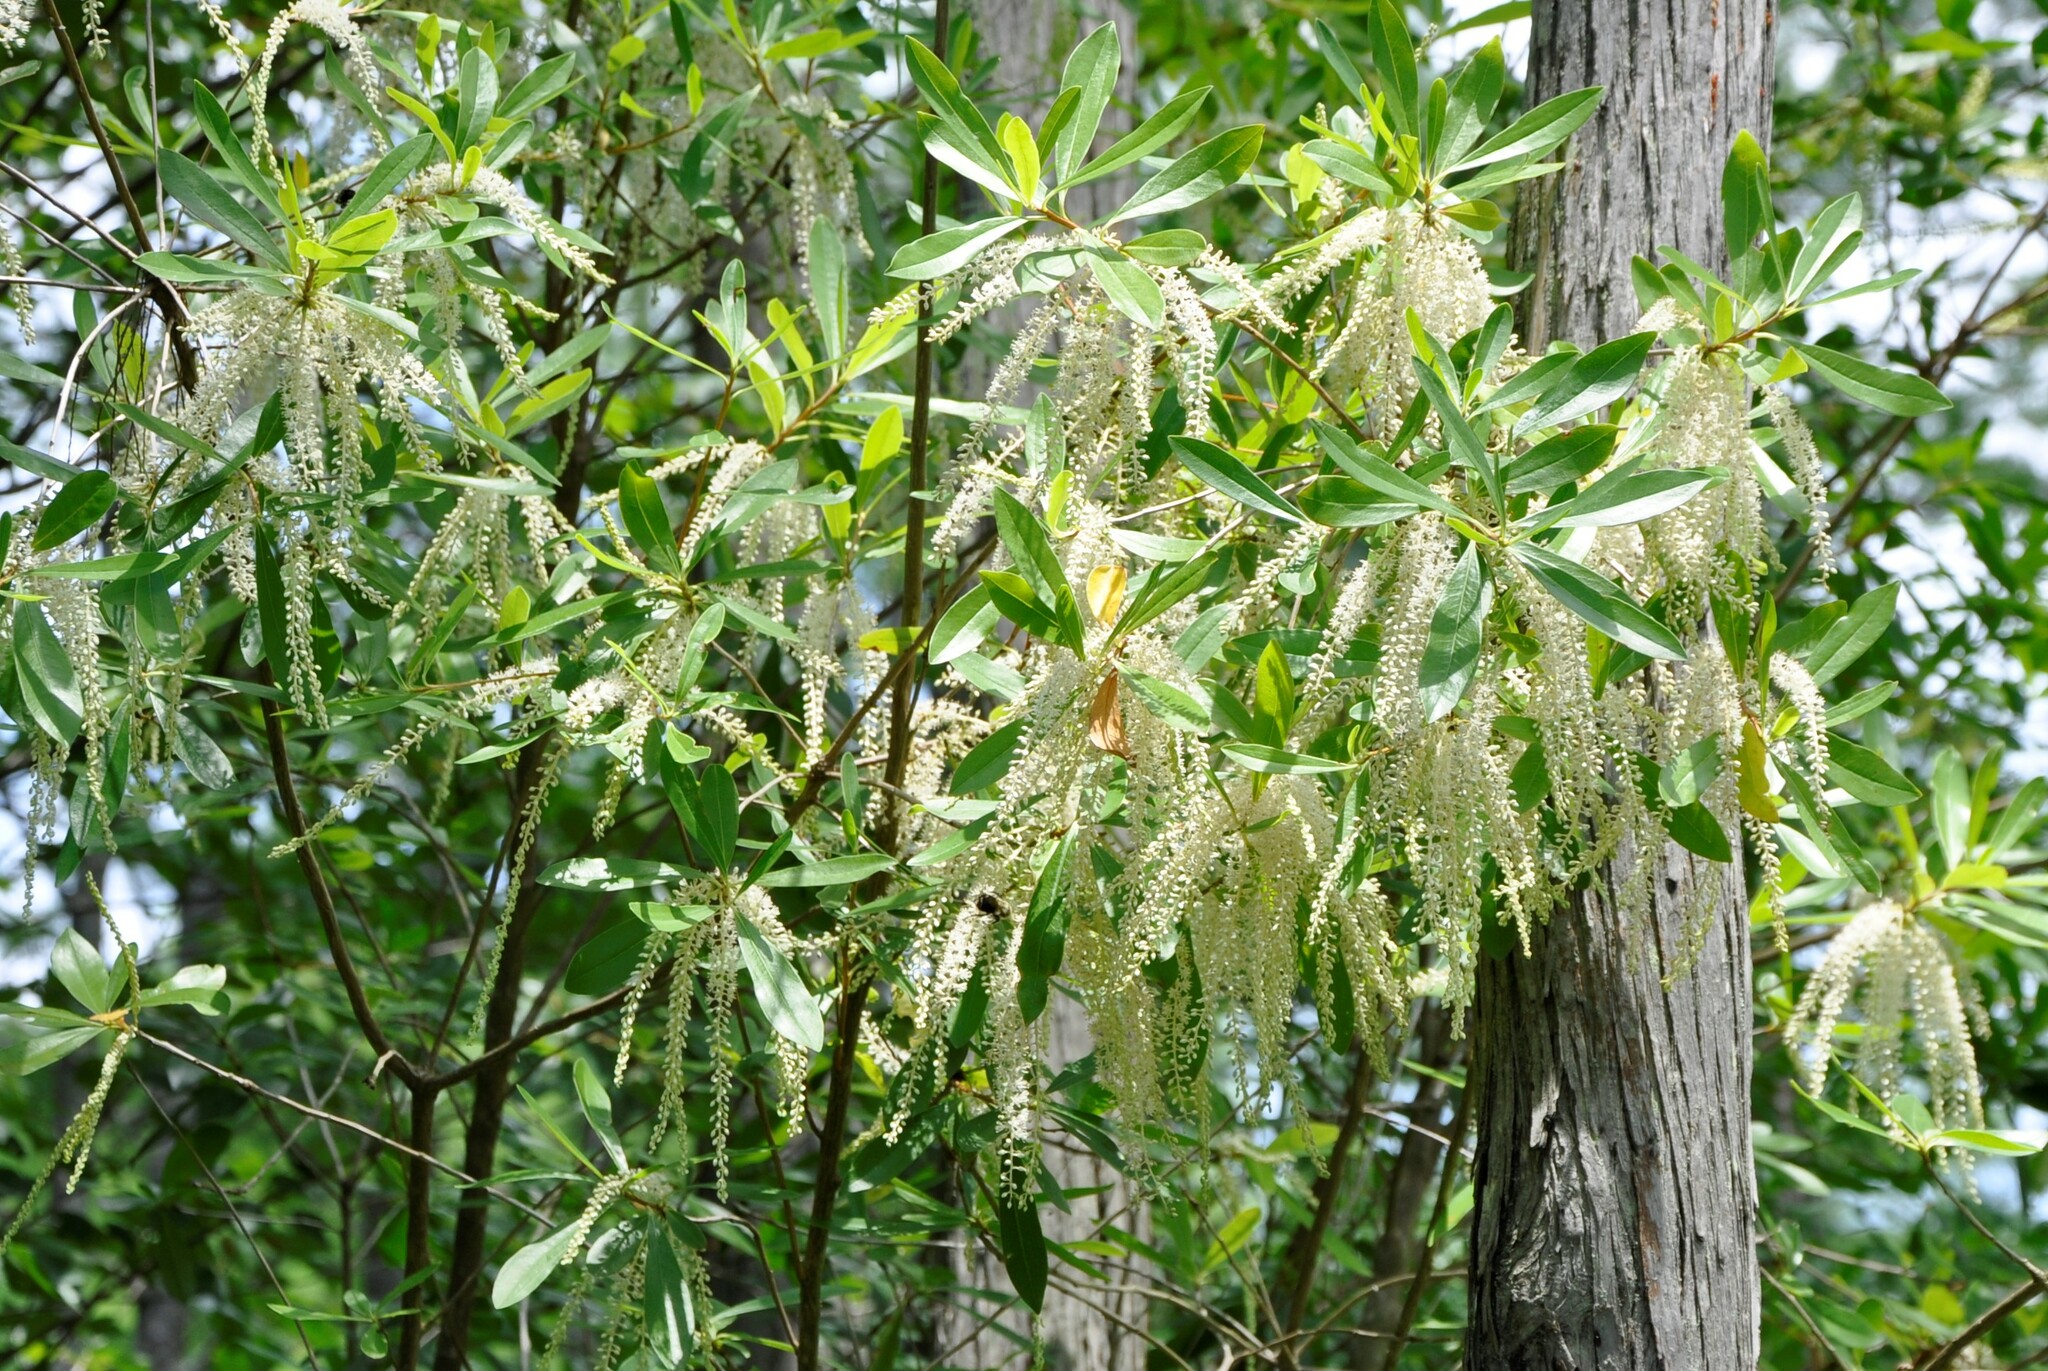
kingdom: Plantae
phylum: Tracheophyta
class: Magnoliopsida
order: Ericales
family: Cyrillaceae
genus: Cyrilla
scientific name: Cyrilla racemiflora
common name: Black titi
